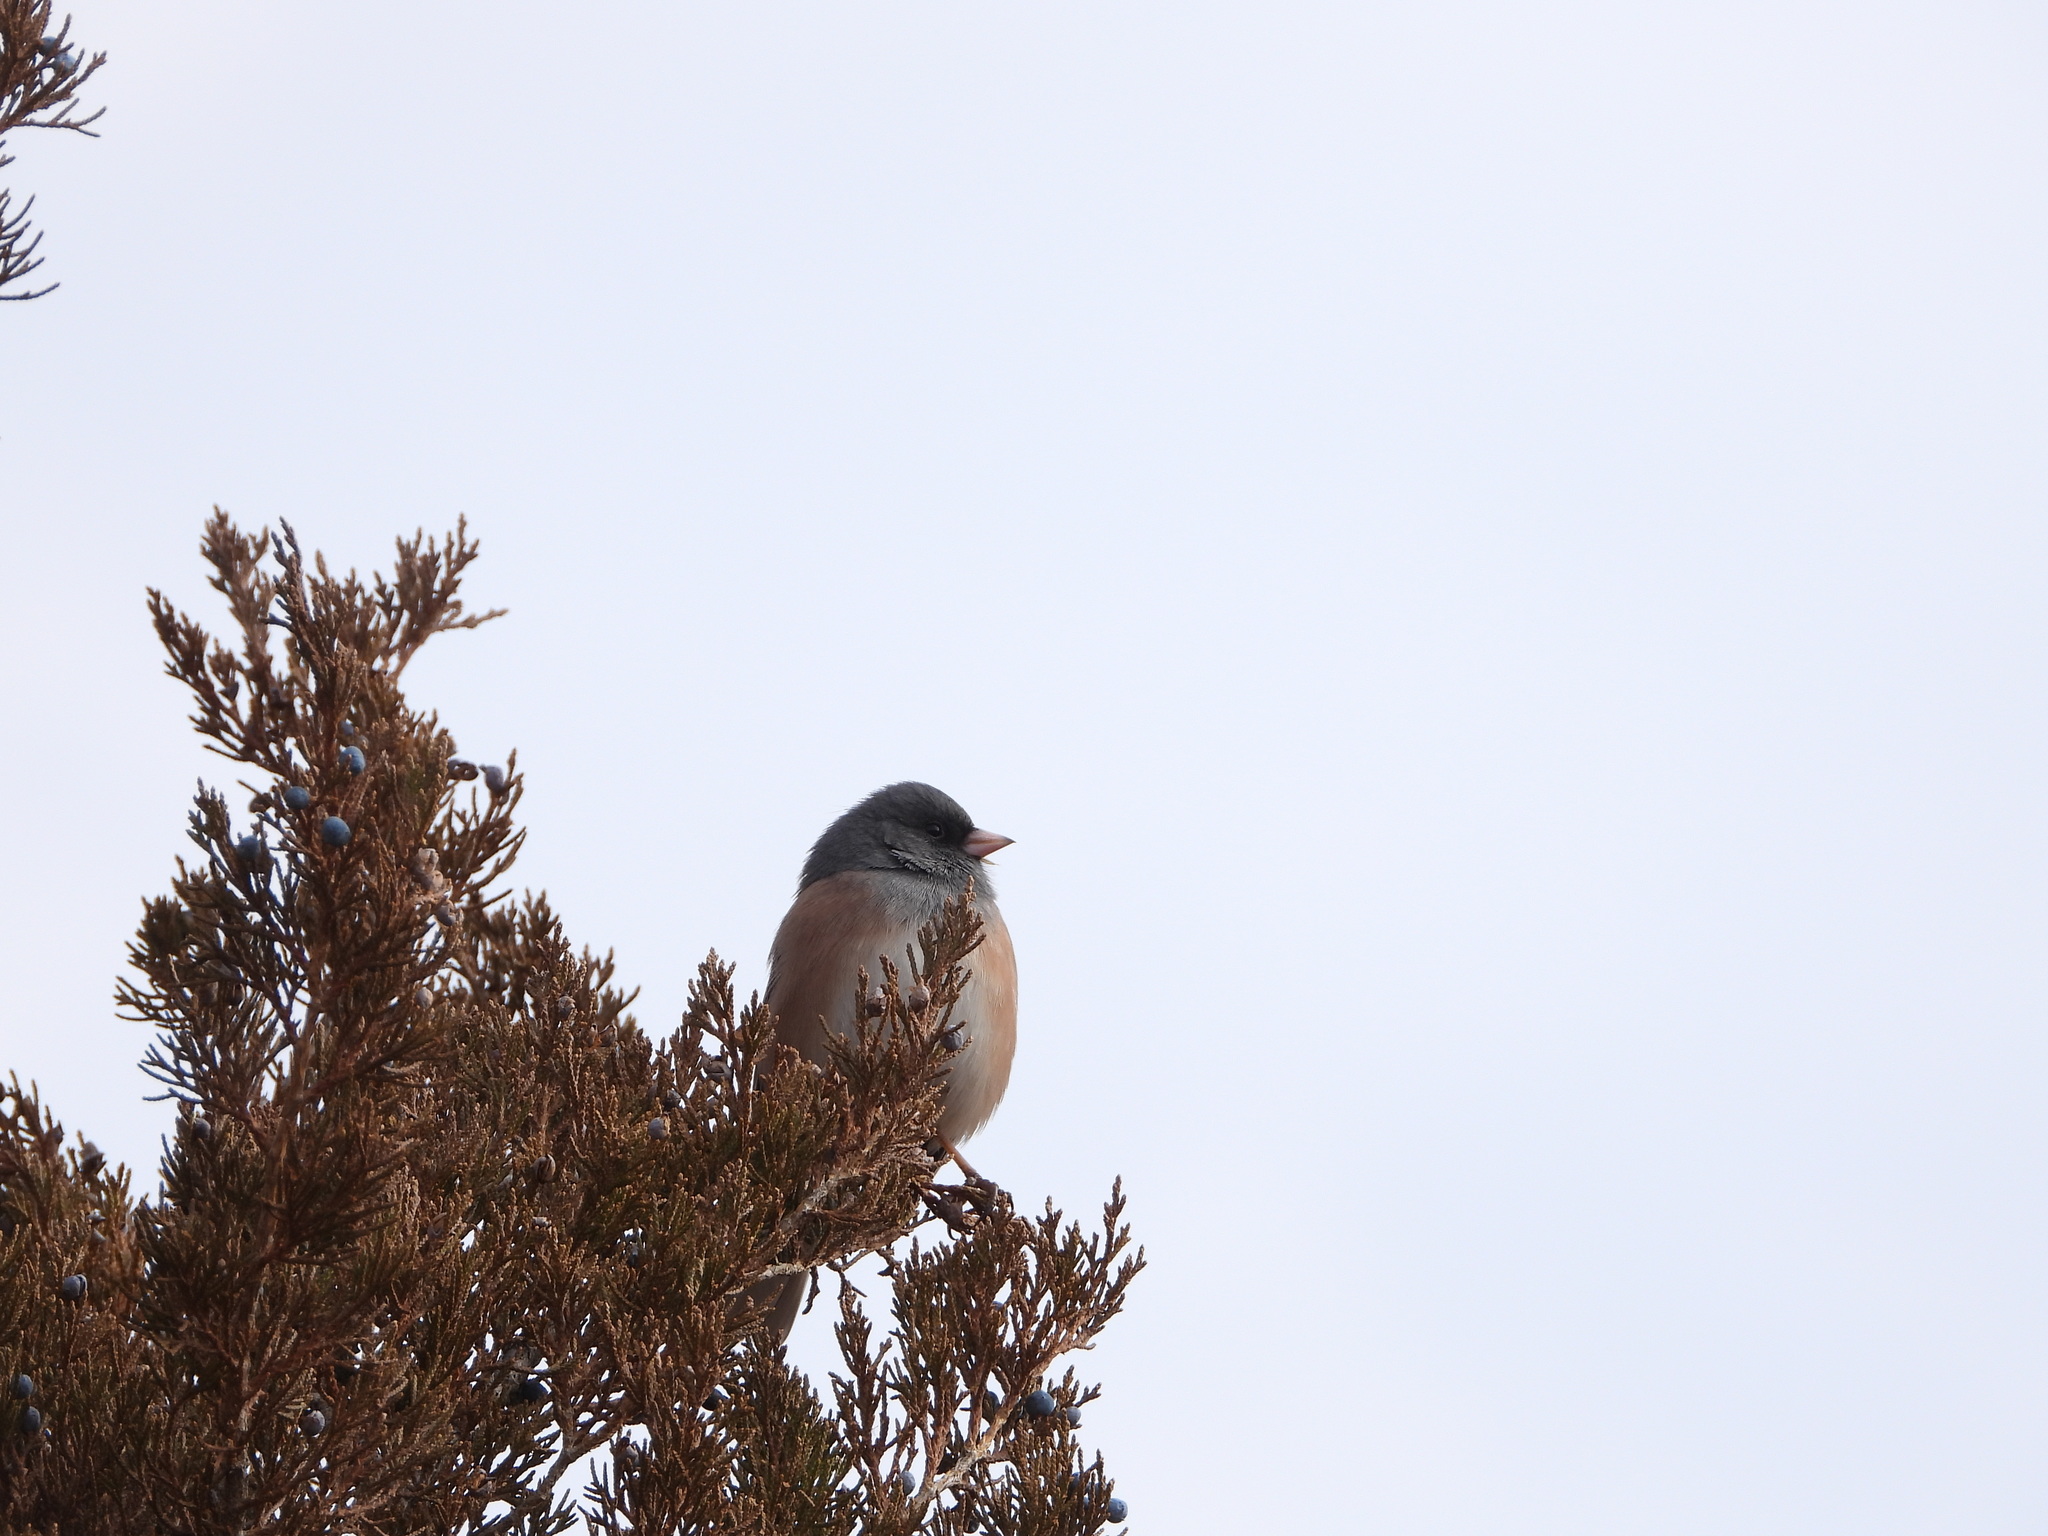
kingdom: Animalia
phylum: Chordata
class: Aves
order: Passeriformes
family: Passerellidae
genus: Junco
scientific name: Junco hyemalis
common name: Dark-eyed junco
